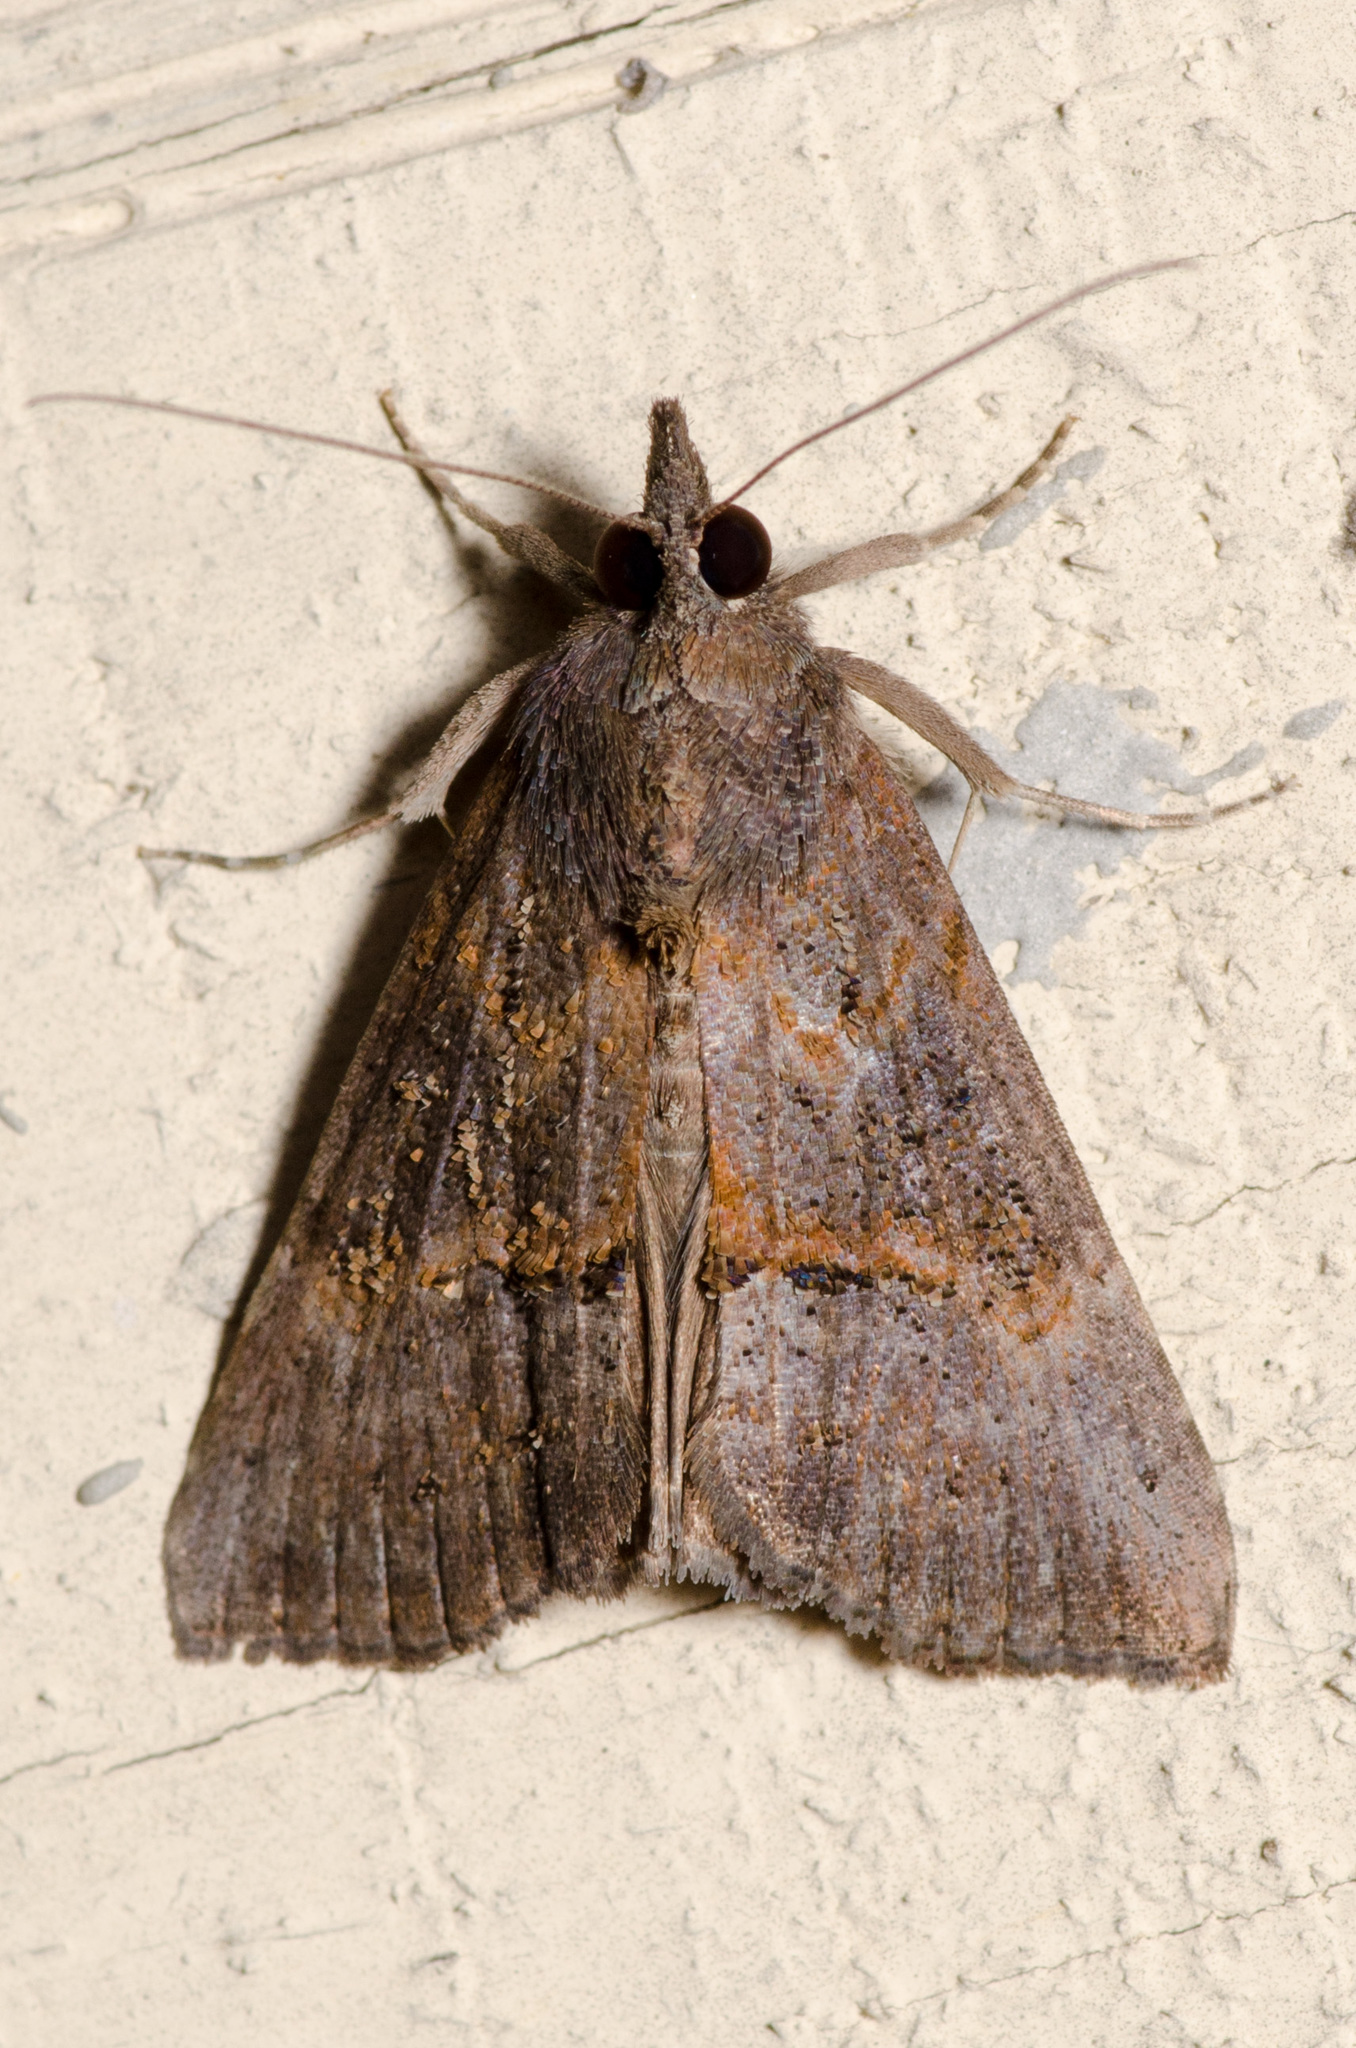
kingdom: Animalia
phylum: Arthropoda
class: Insecta
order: Lepidoptera
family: Erebidae
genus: Hypena
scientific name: Hypena scabra
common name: Green cloverworm
